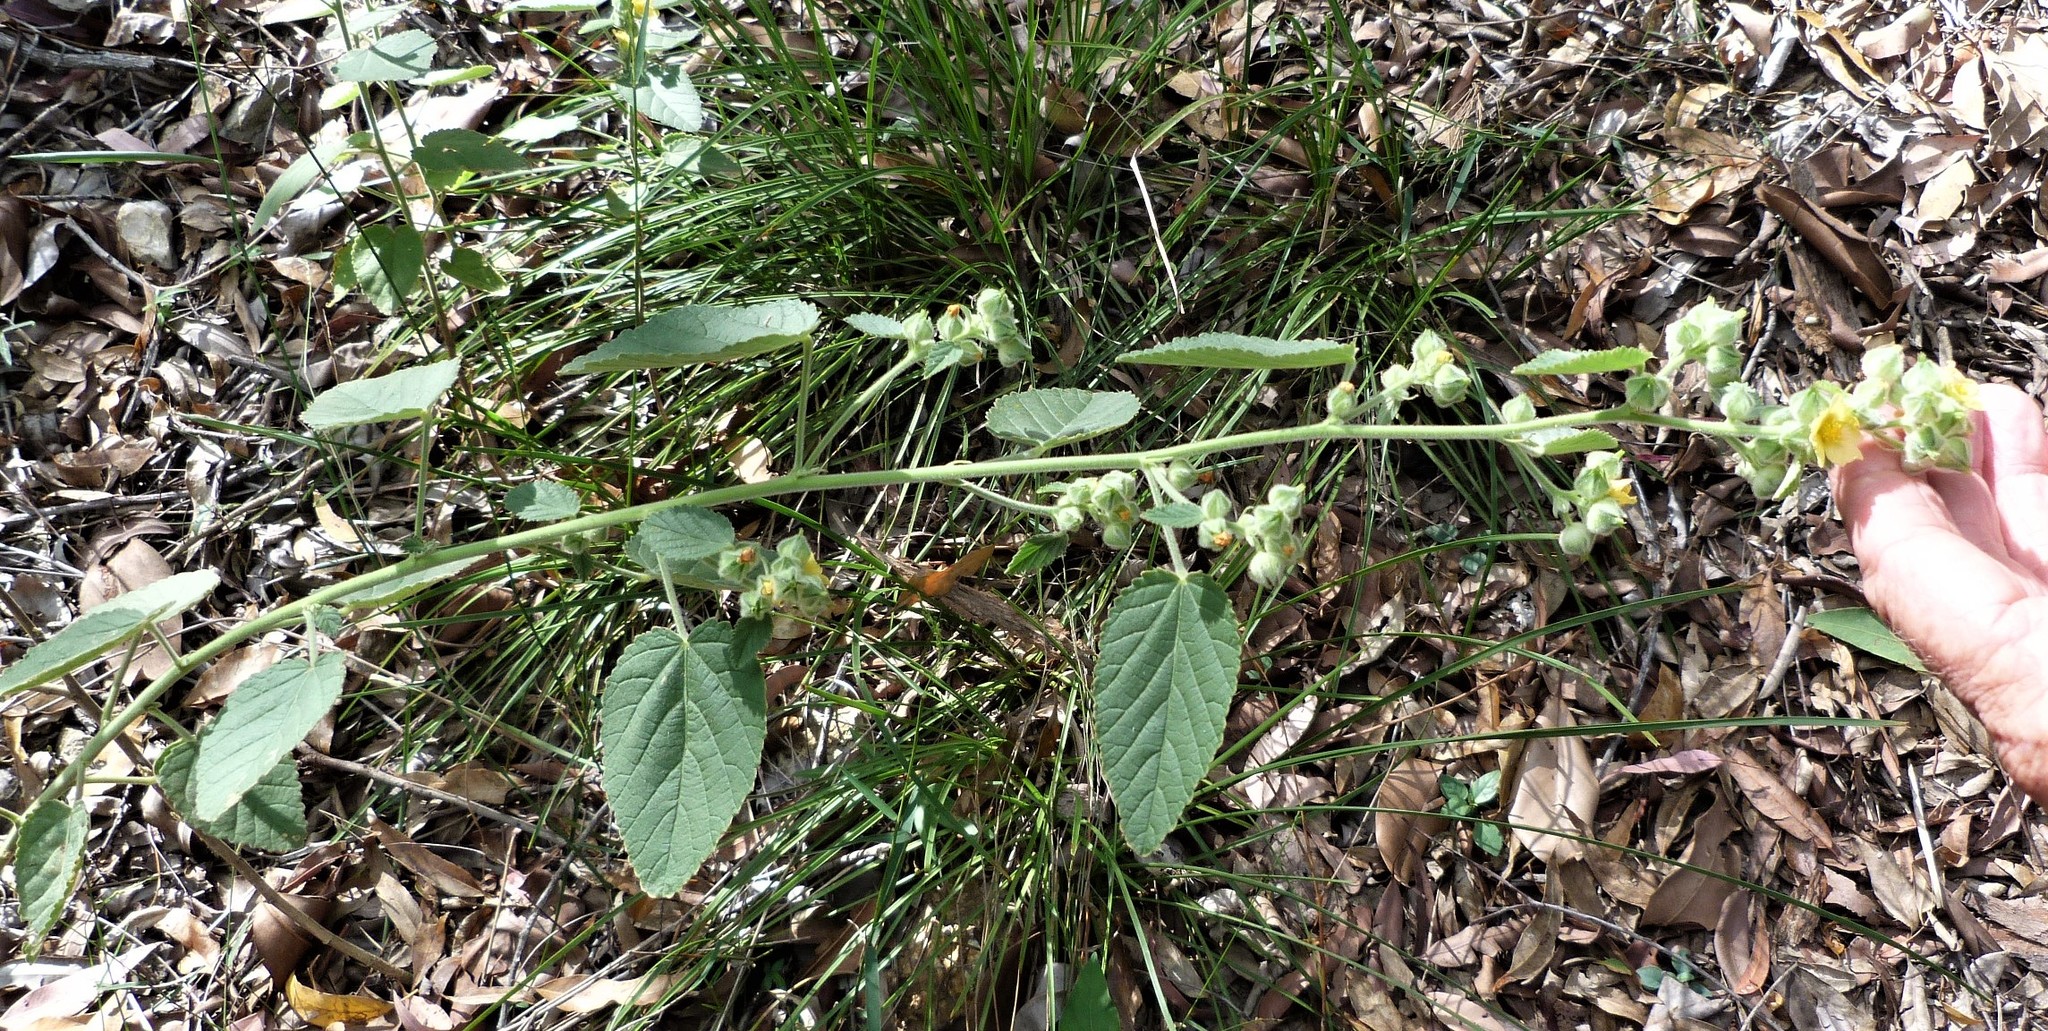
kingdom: Plantae
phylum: Tracheophyta
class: Magnoliopsida
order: Malvales
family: Malvaceae
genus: Sida
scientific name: Sida cordifolia
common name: Ilima
